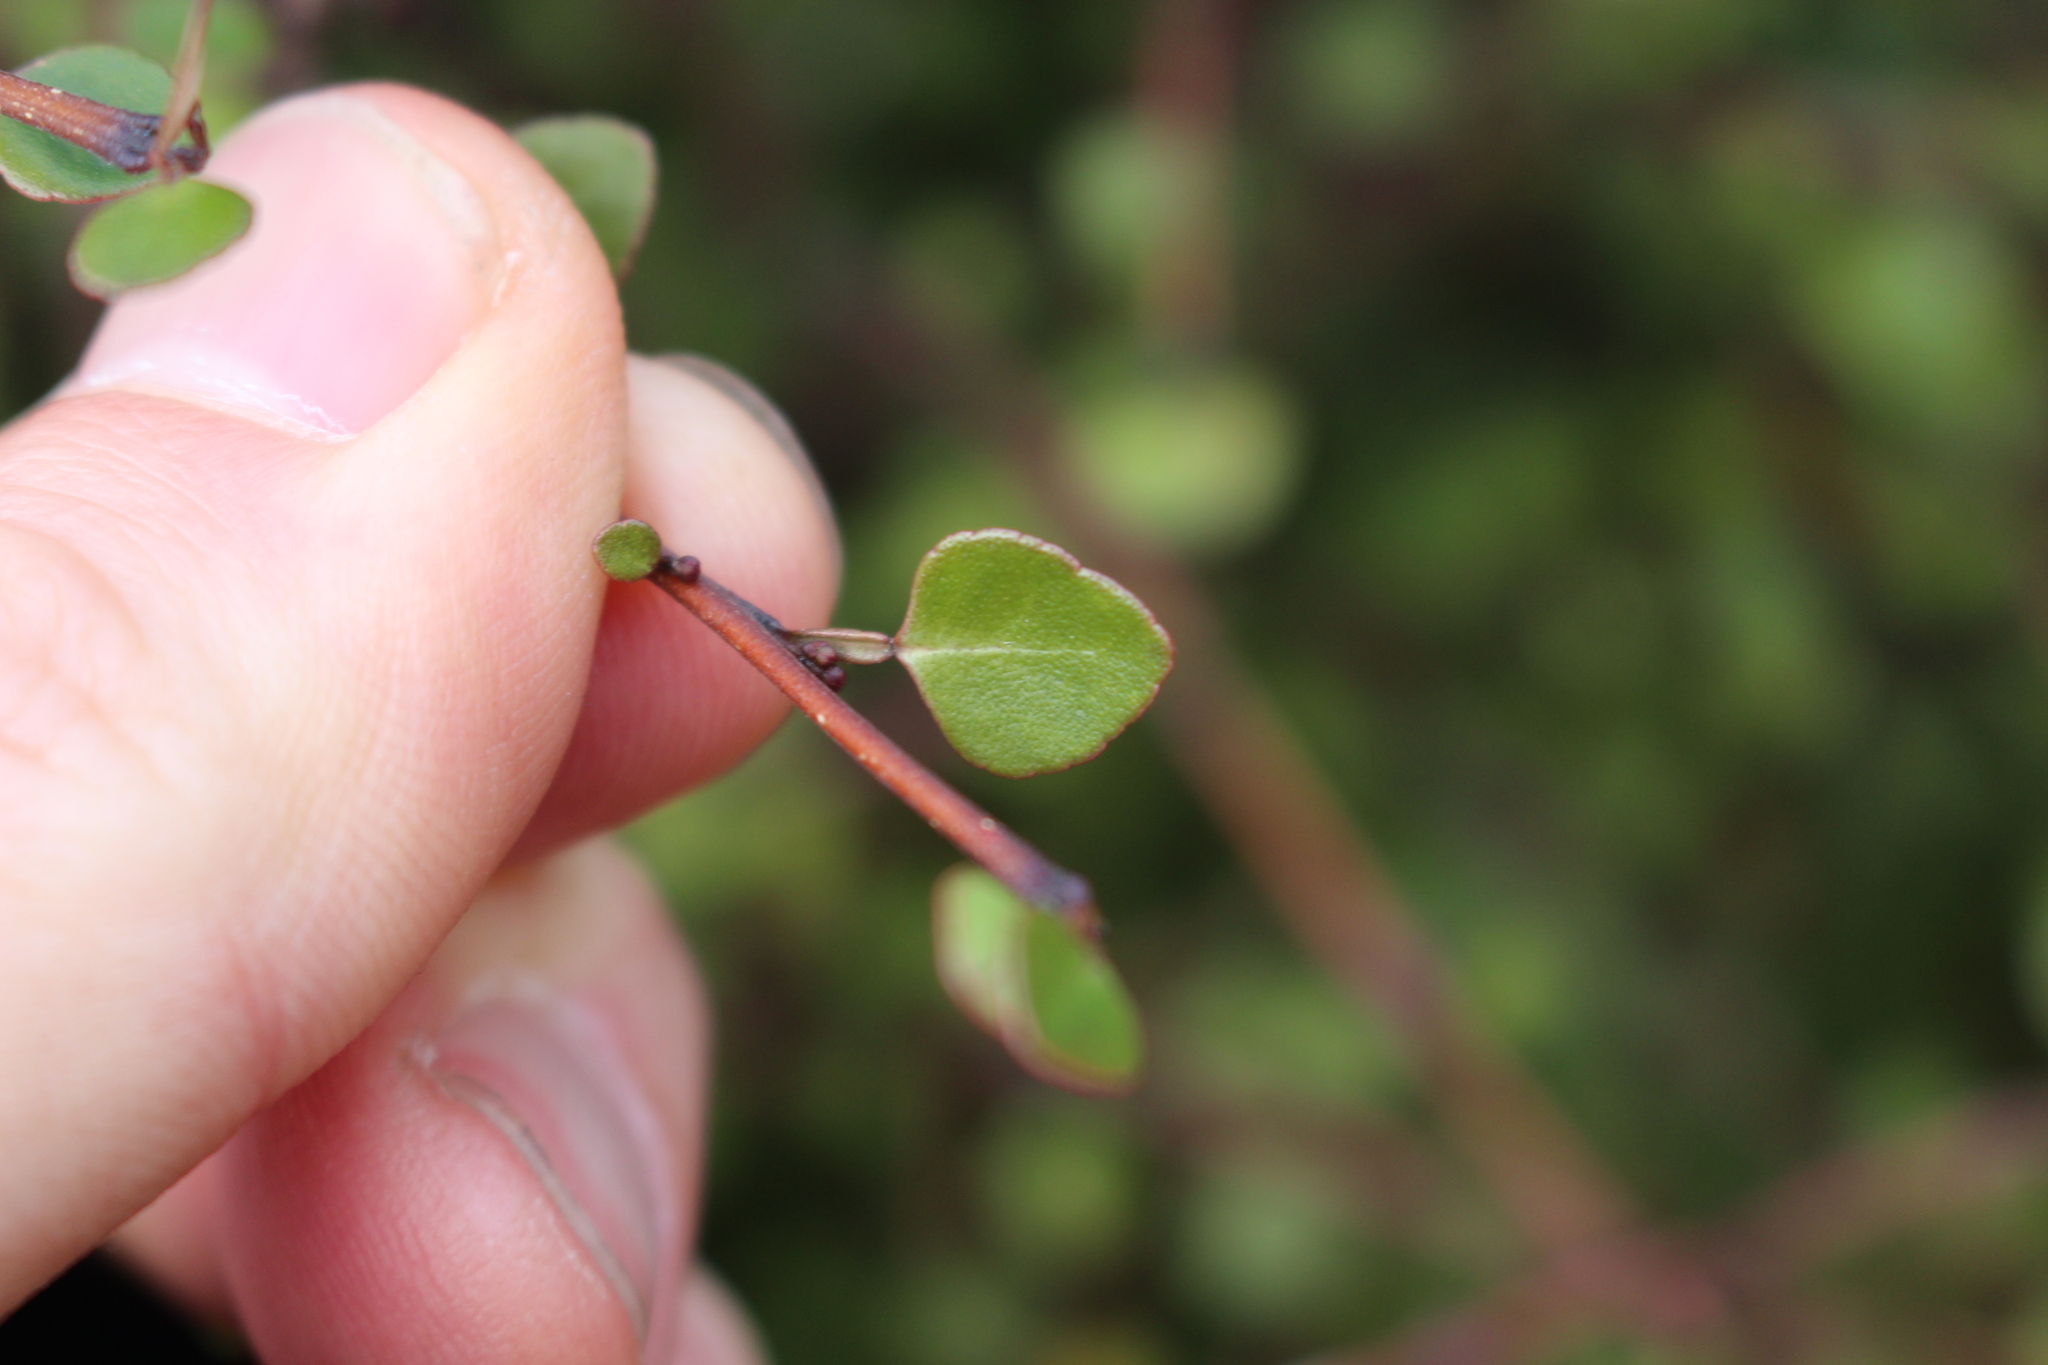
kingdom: Plantae
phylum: Tracheophyta
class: Magnoliopsida
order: Sapindales
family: Rutaceae
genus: Melicope
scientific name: Melicope simplex
